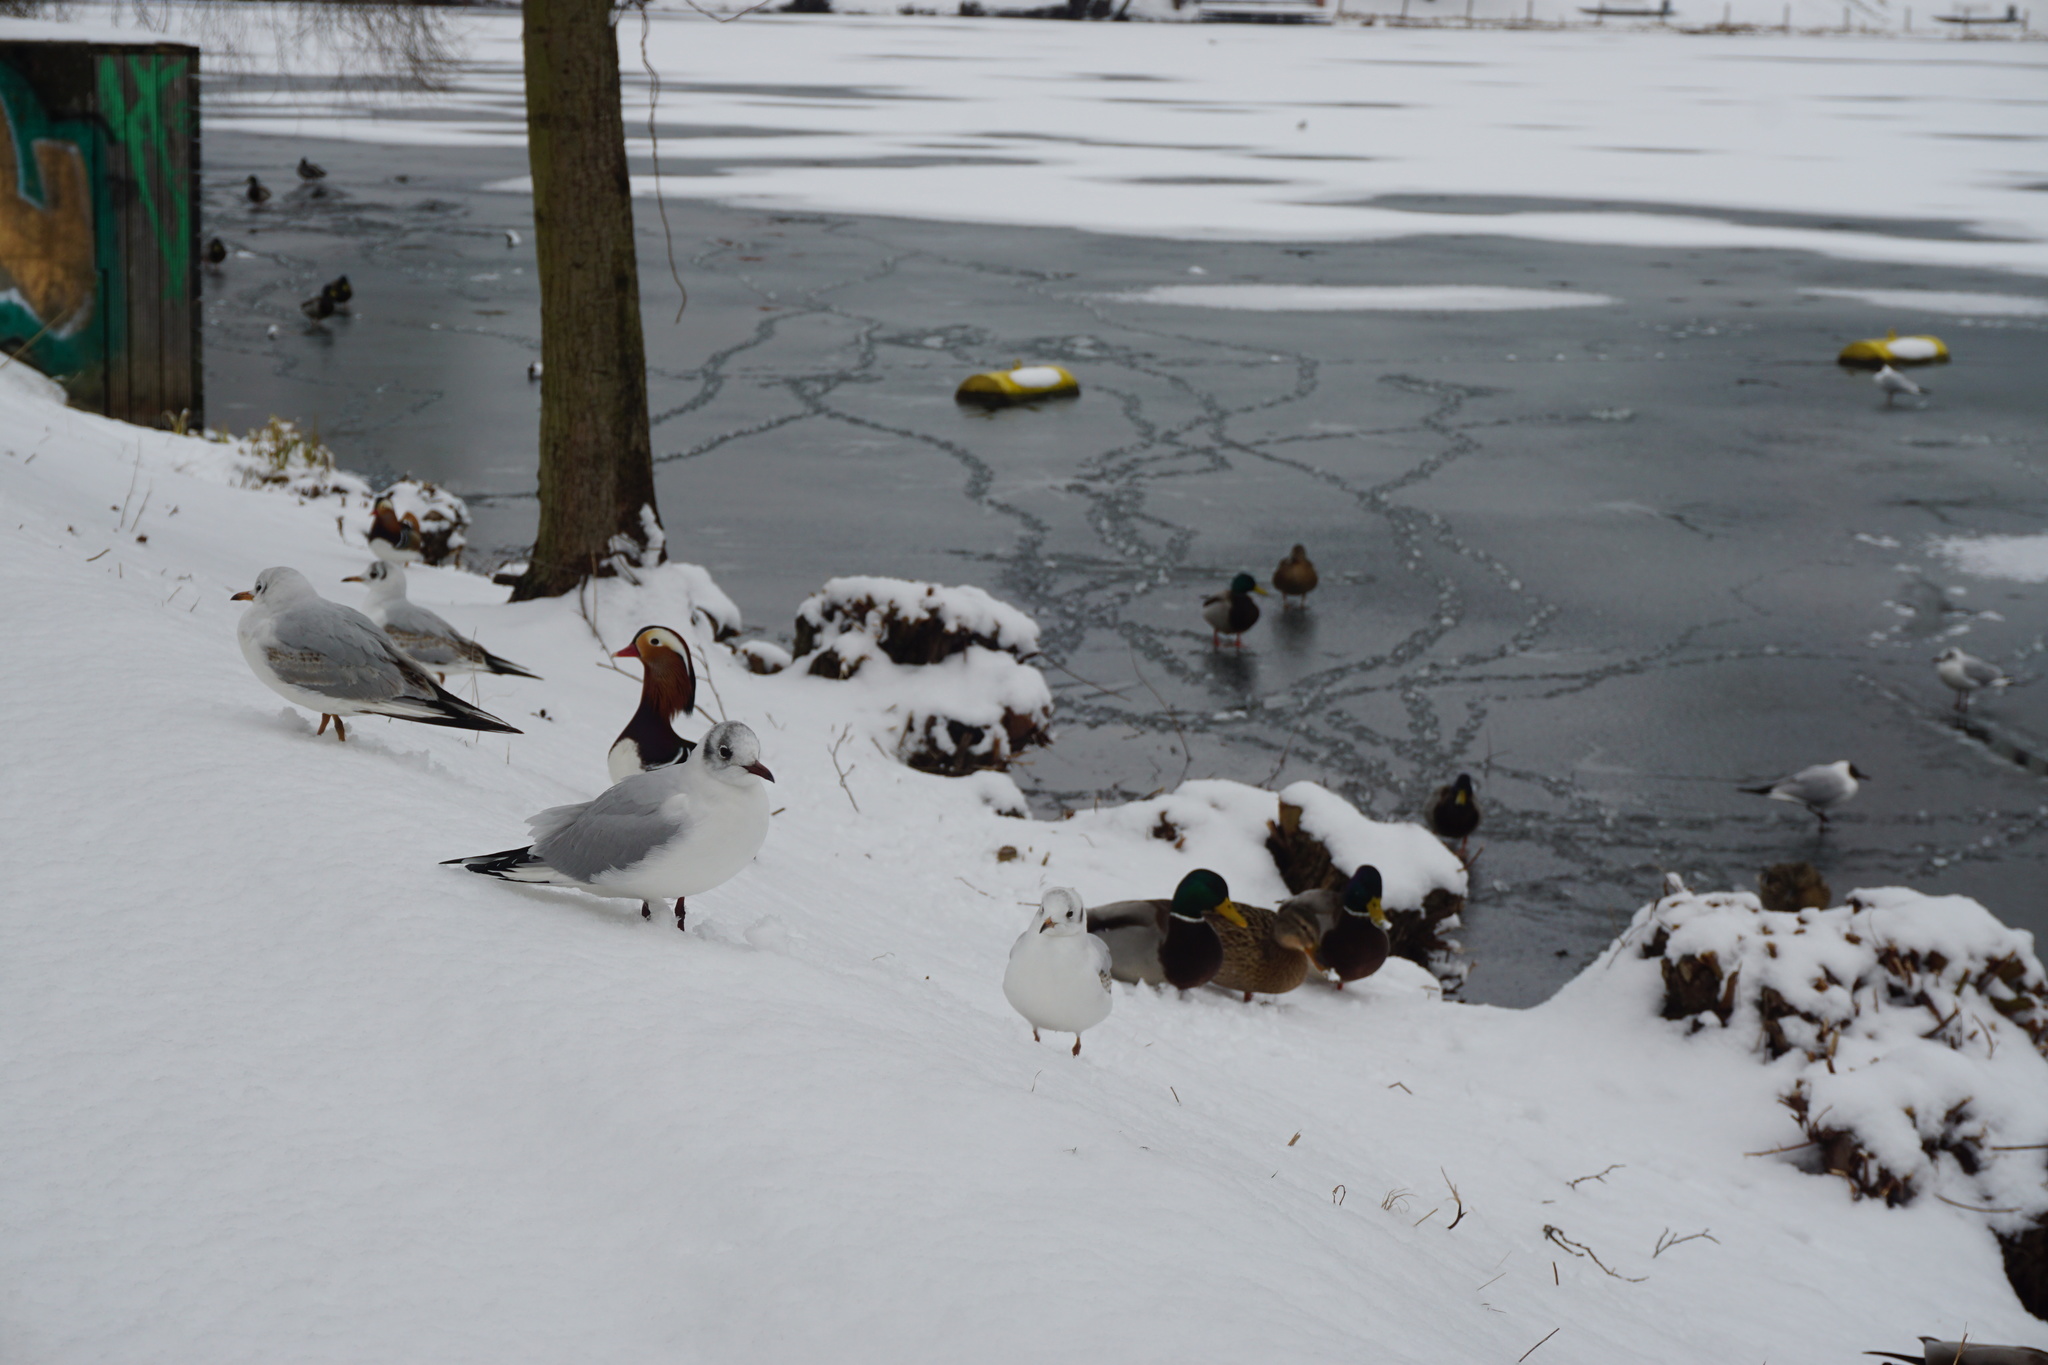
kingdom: Animalia
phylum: Chordata
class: Aves
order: Charadriiformes
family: Laridae
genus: Chroicocephalus
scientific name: Chroicocephalus ridibundus
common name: Black-headed gull
